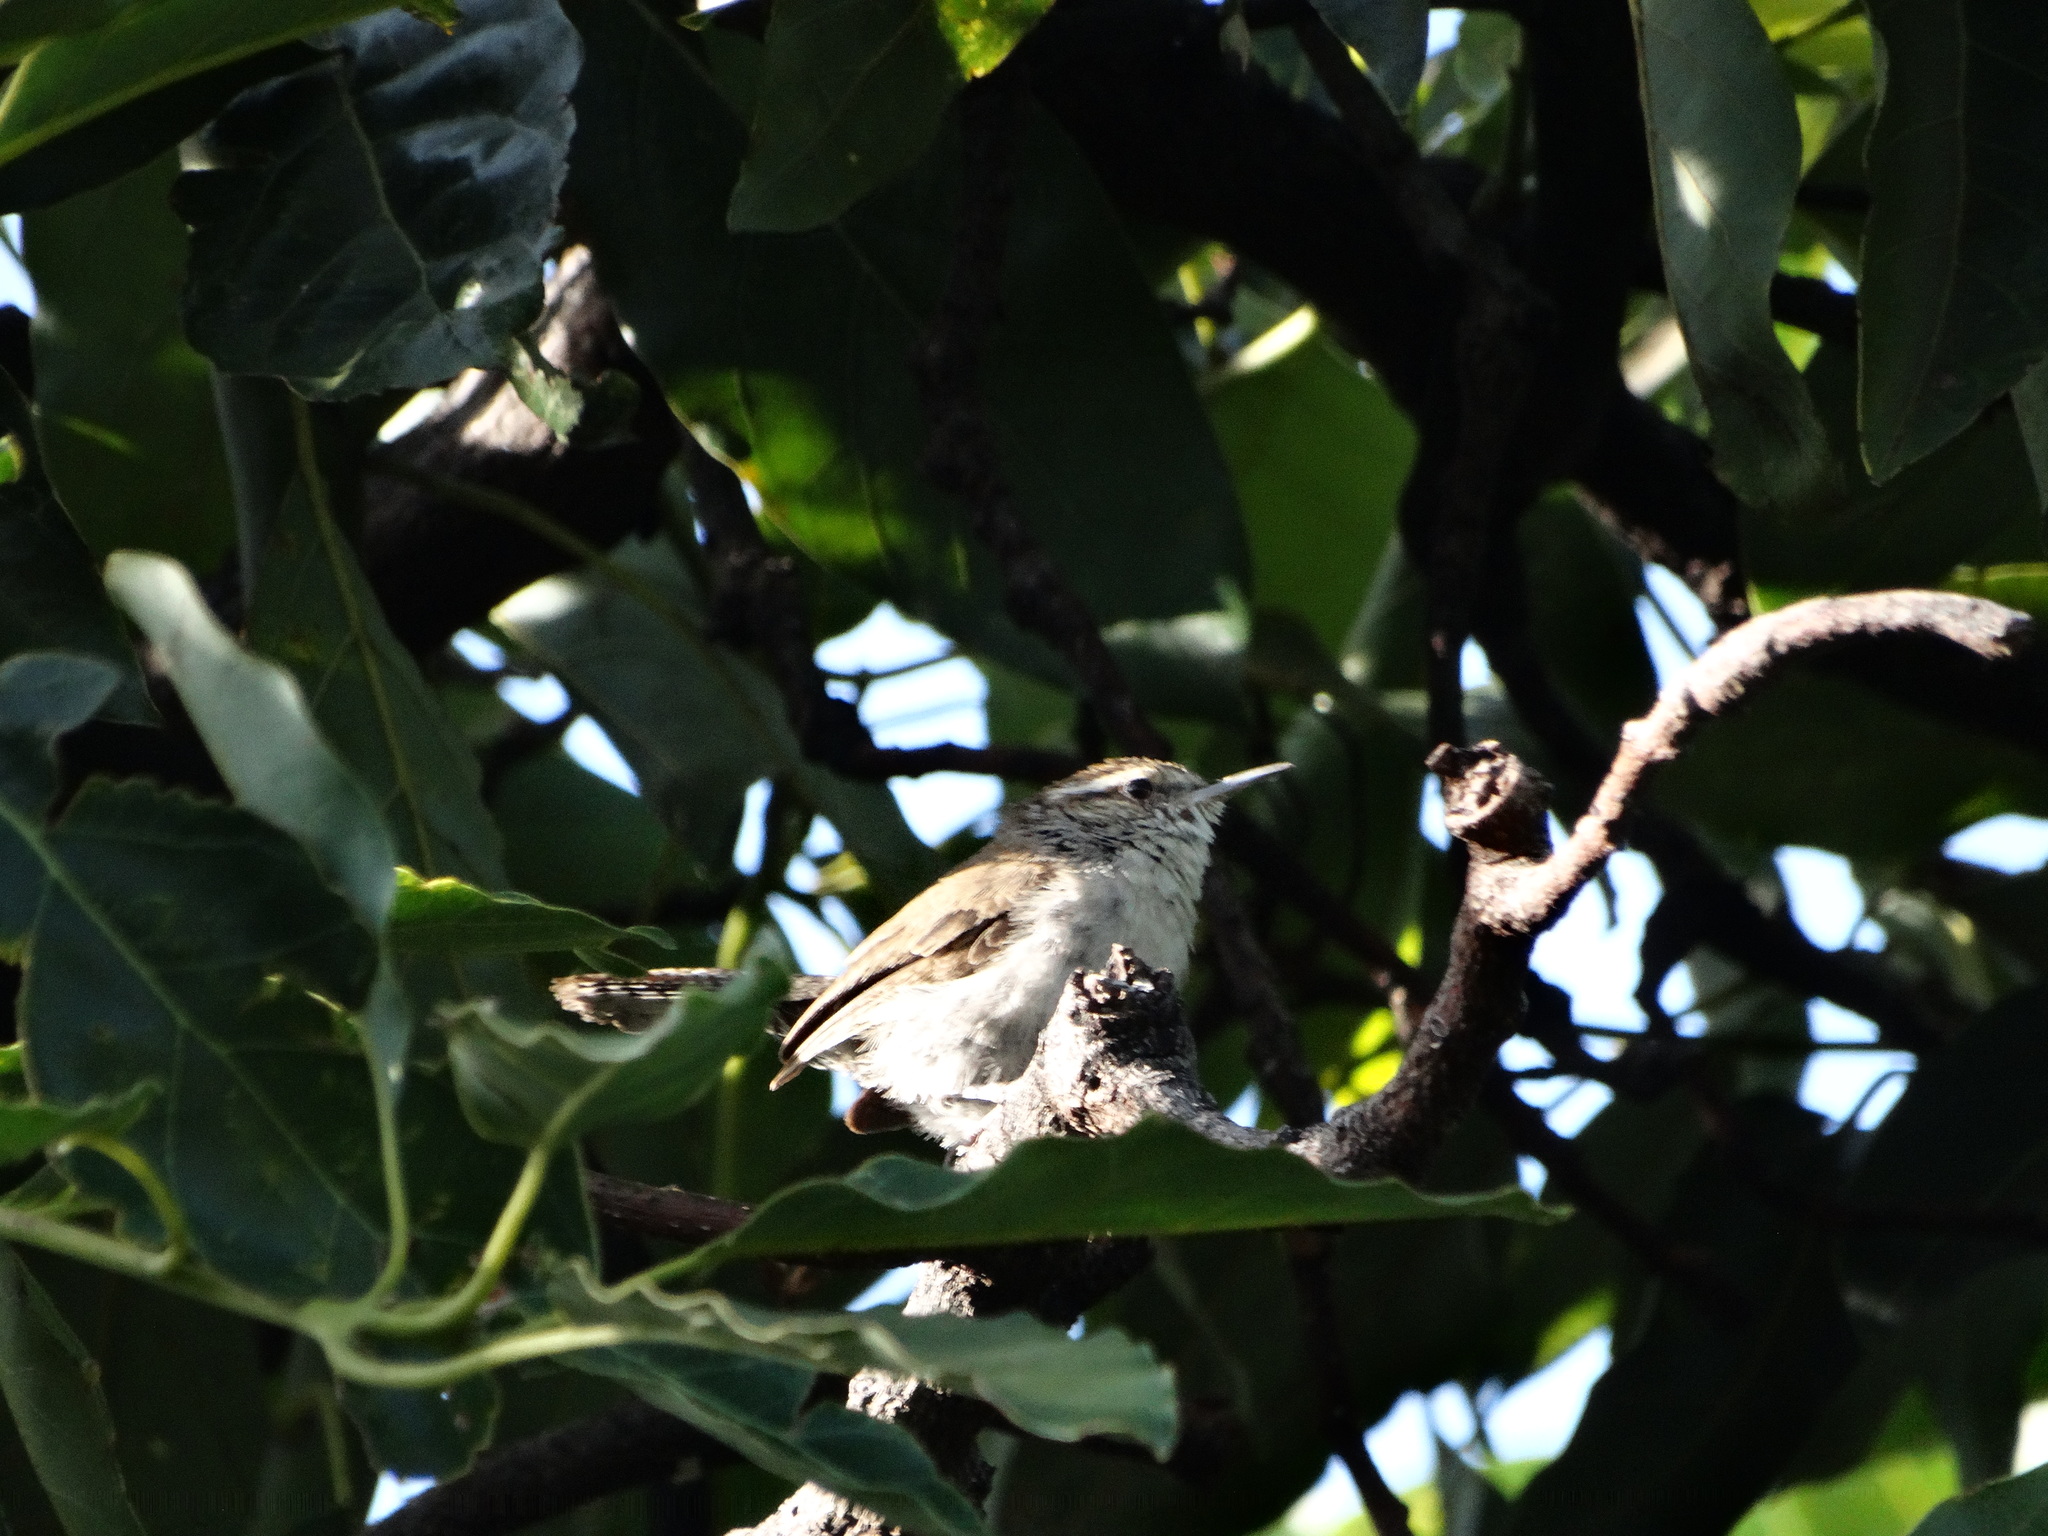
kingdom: Animalia
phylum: Chordata
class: Aves
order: Passeriformes
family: Troglodytidae
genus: Thryomanes
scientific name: Thryomanes bewickii
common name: Bewick's wren
